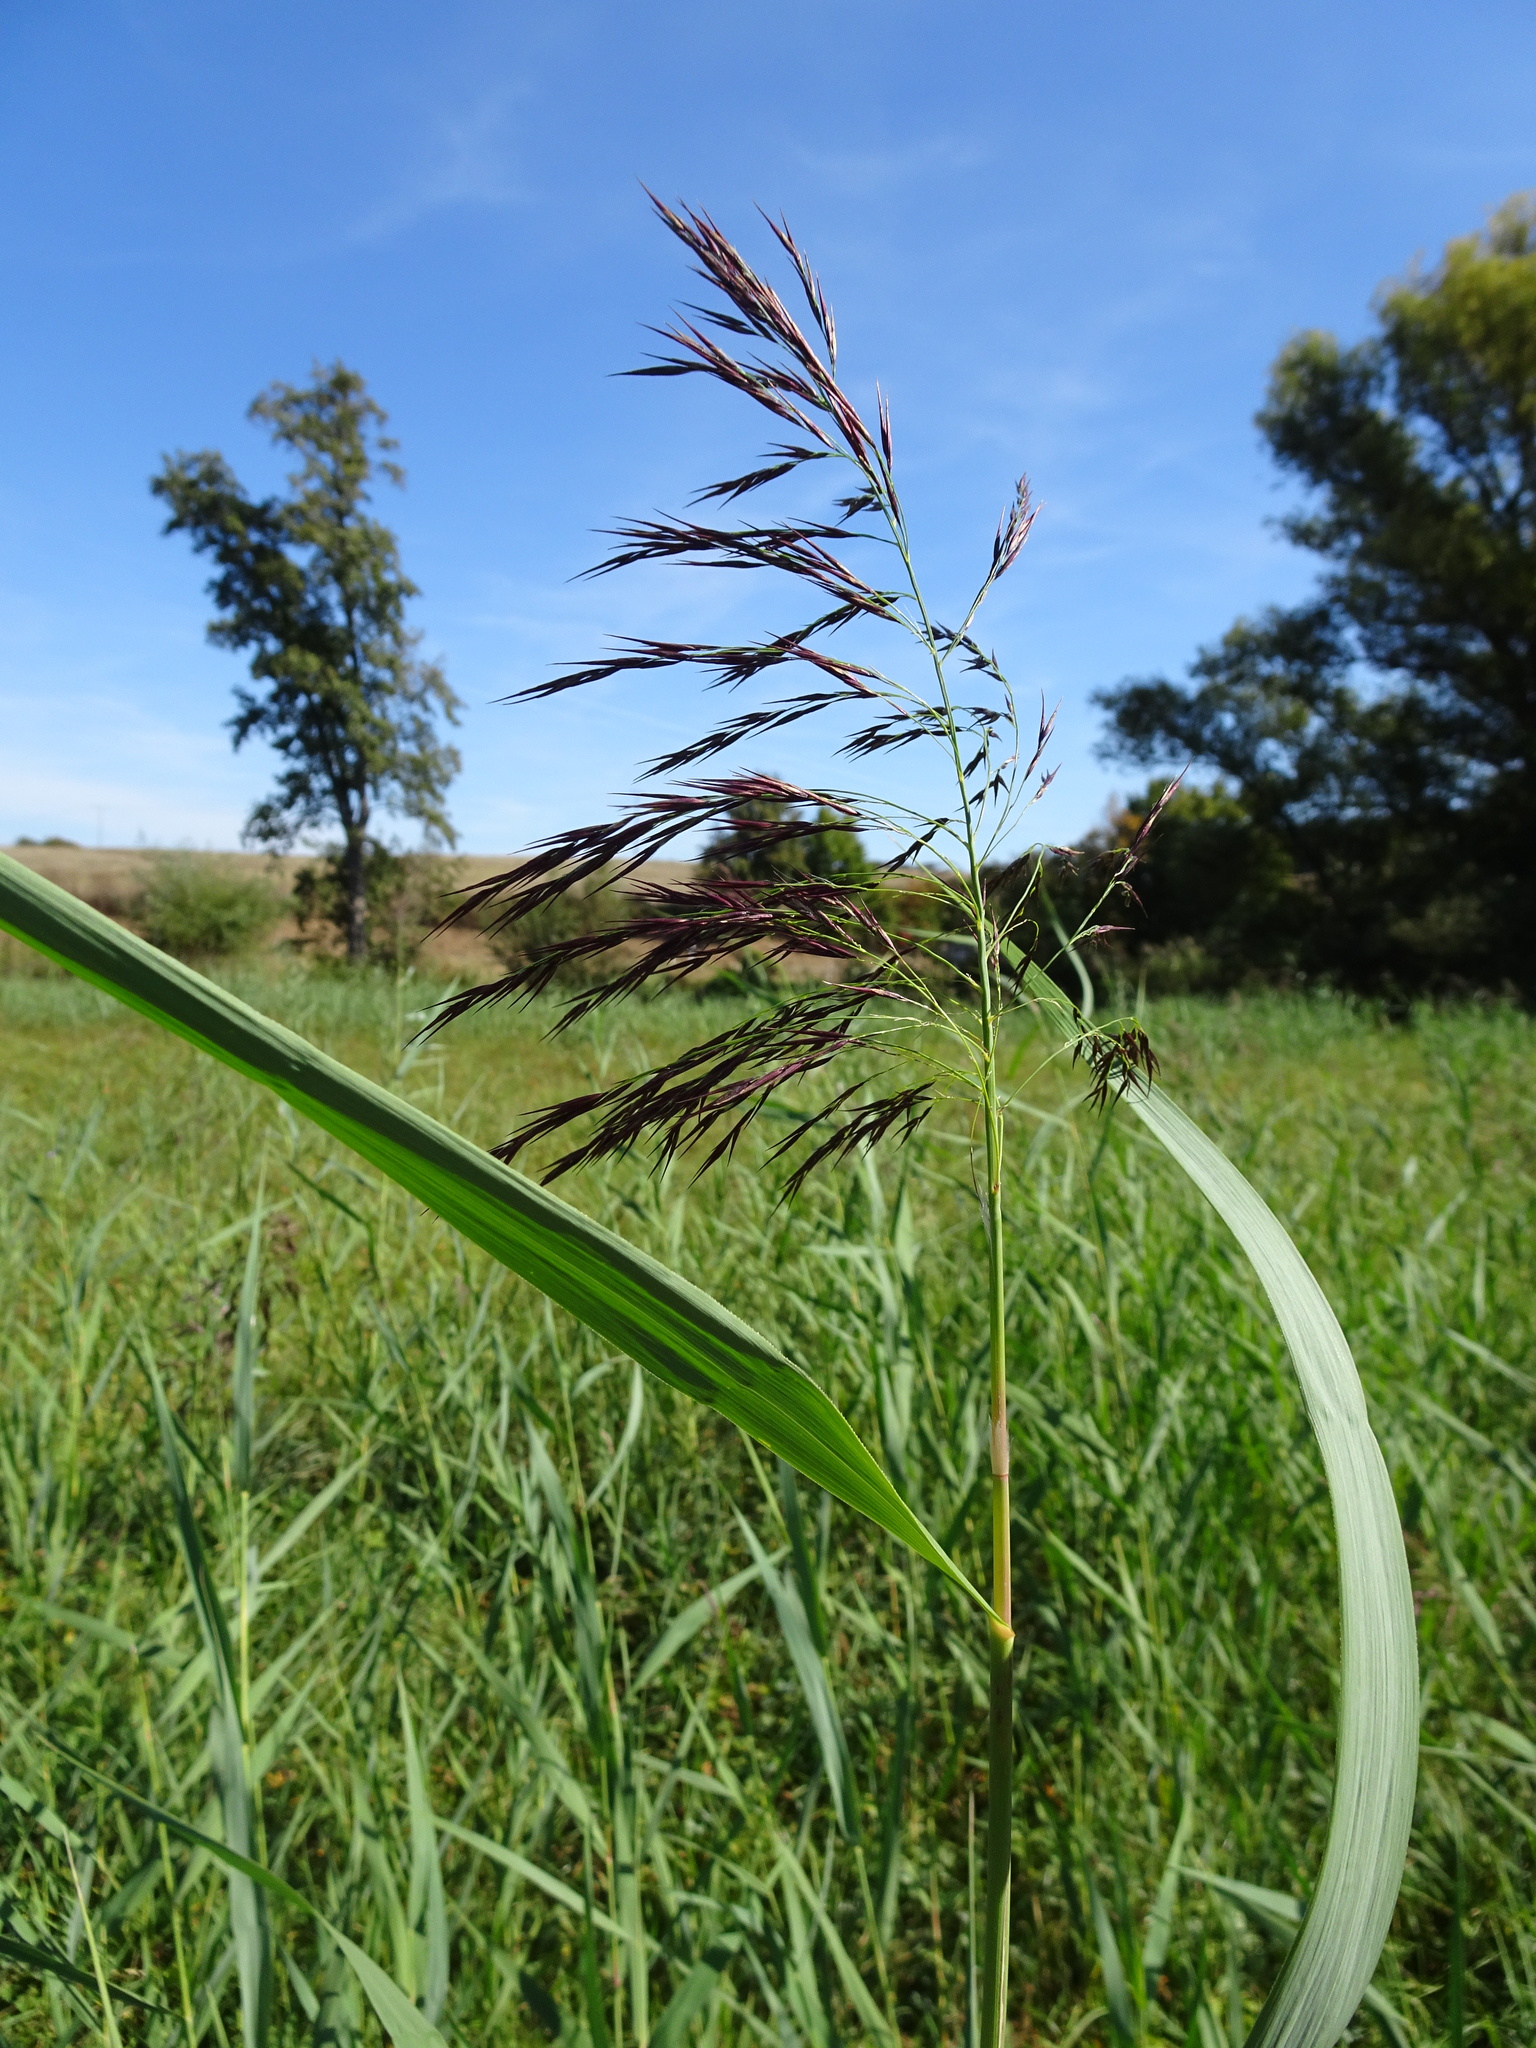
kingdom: Plantae
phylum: Tracheophyta
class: Liliopsida
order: Poales
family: Poaceae
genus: Phragmites
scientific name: Phragmites australis
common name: Common reed
